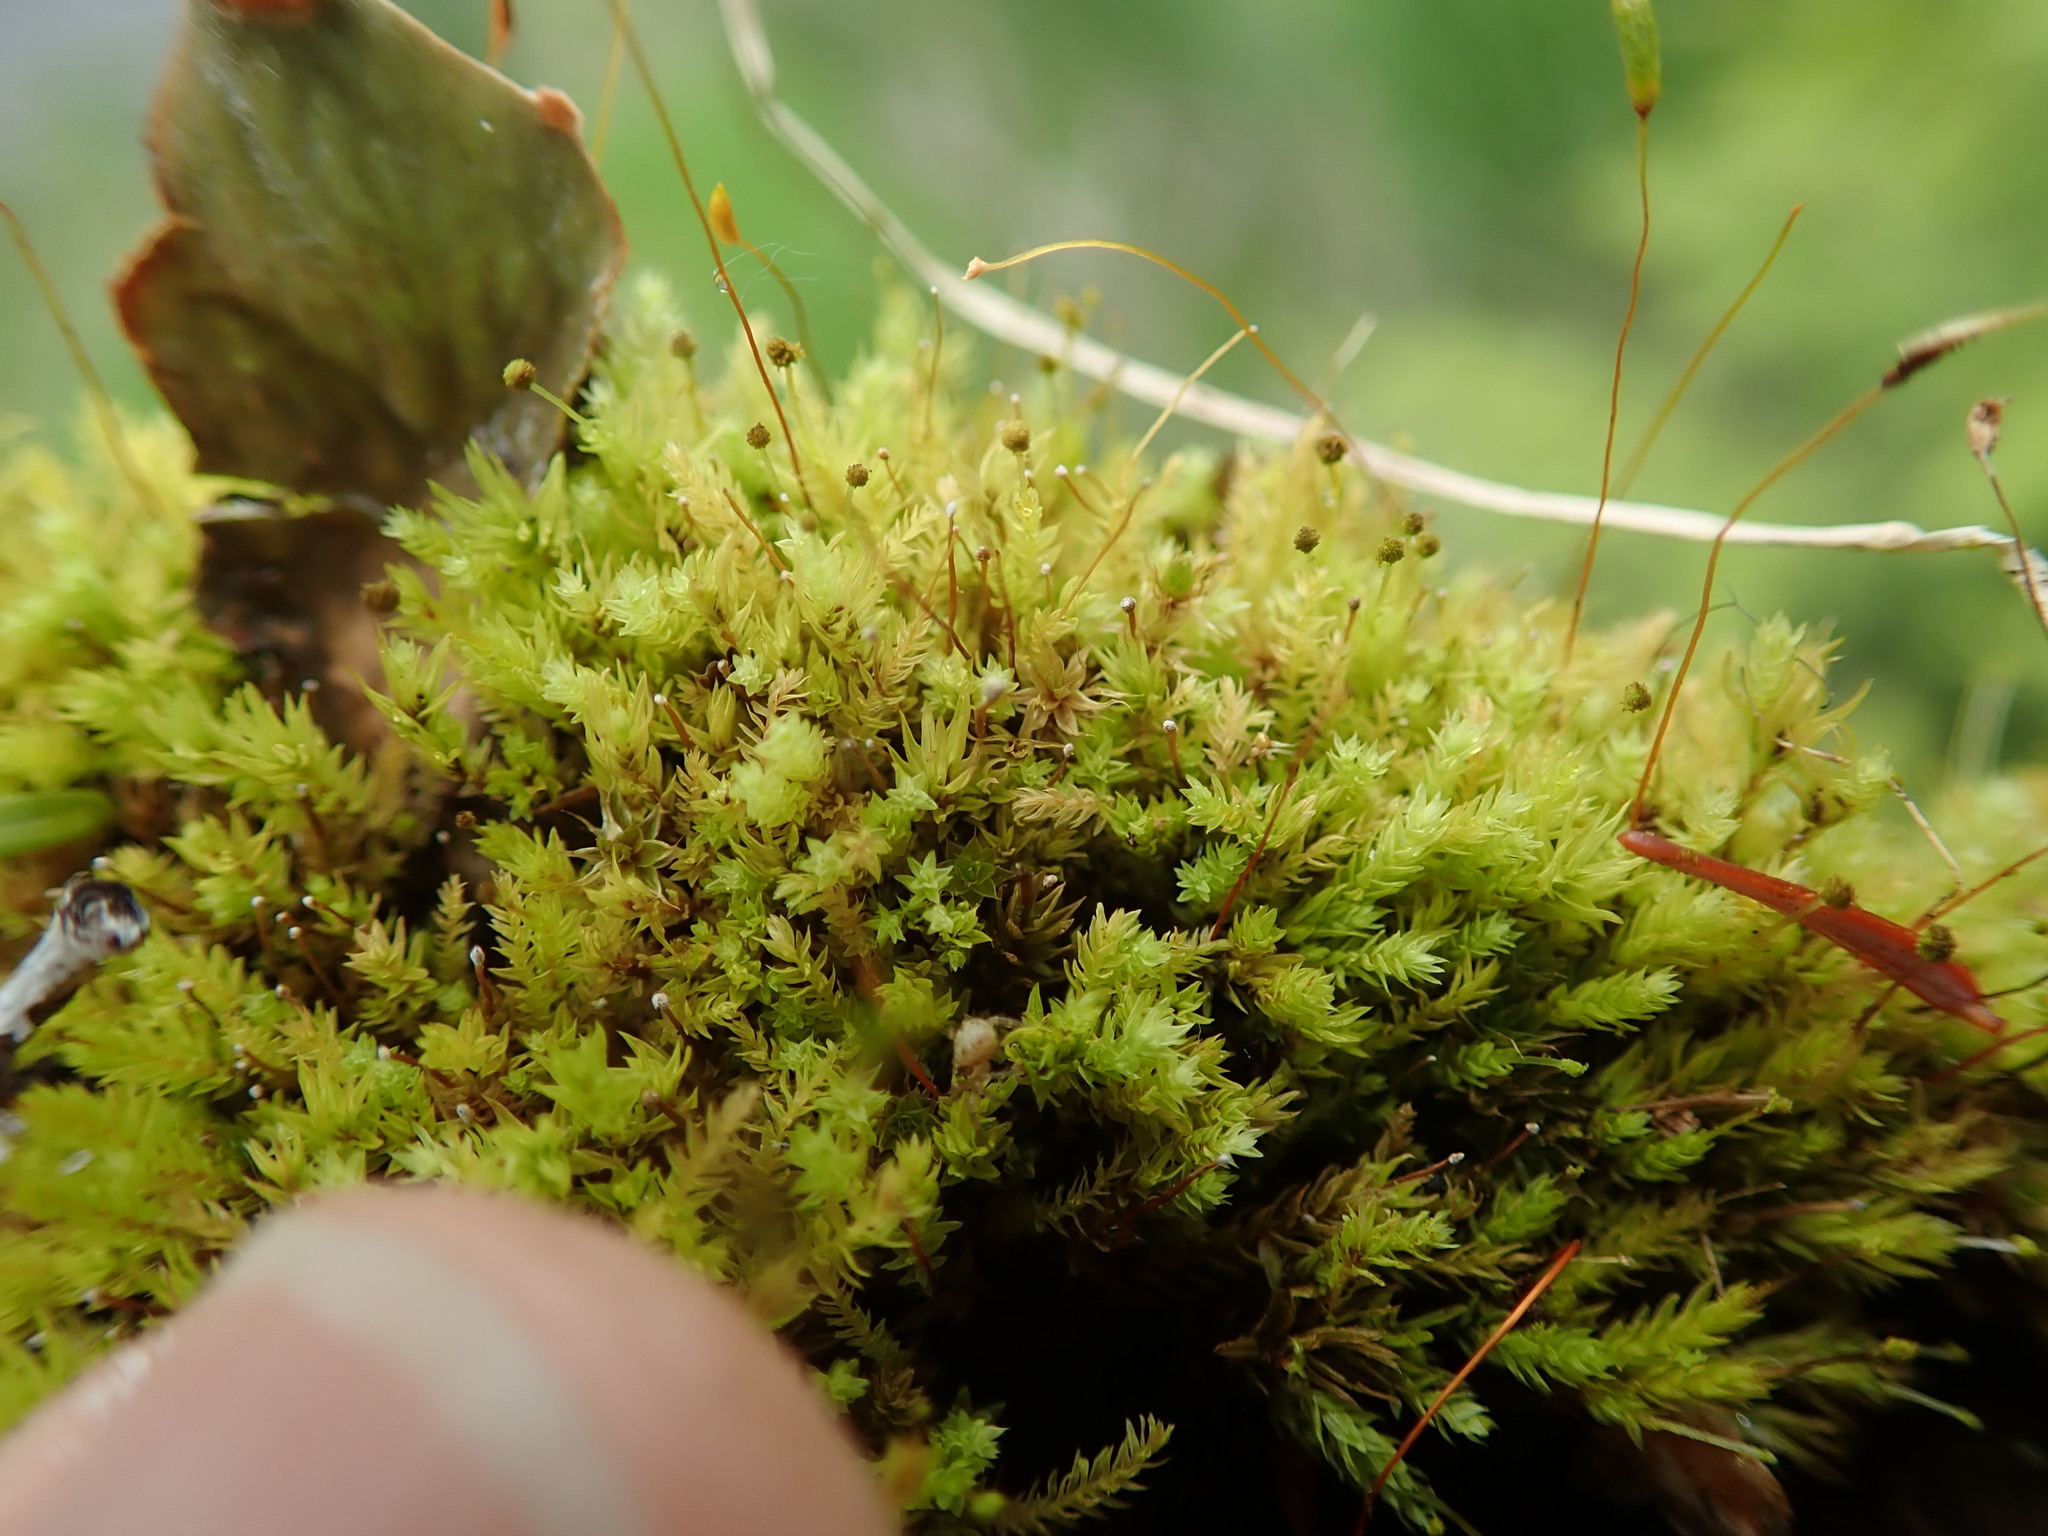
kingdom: Plantae
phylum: Bryophyta
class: Bryopsida
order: Aulacomniales
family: Aulacomniaceae
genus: Aulacomnium
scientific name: Aulacomnium androgynum
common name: Little groove moss
